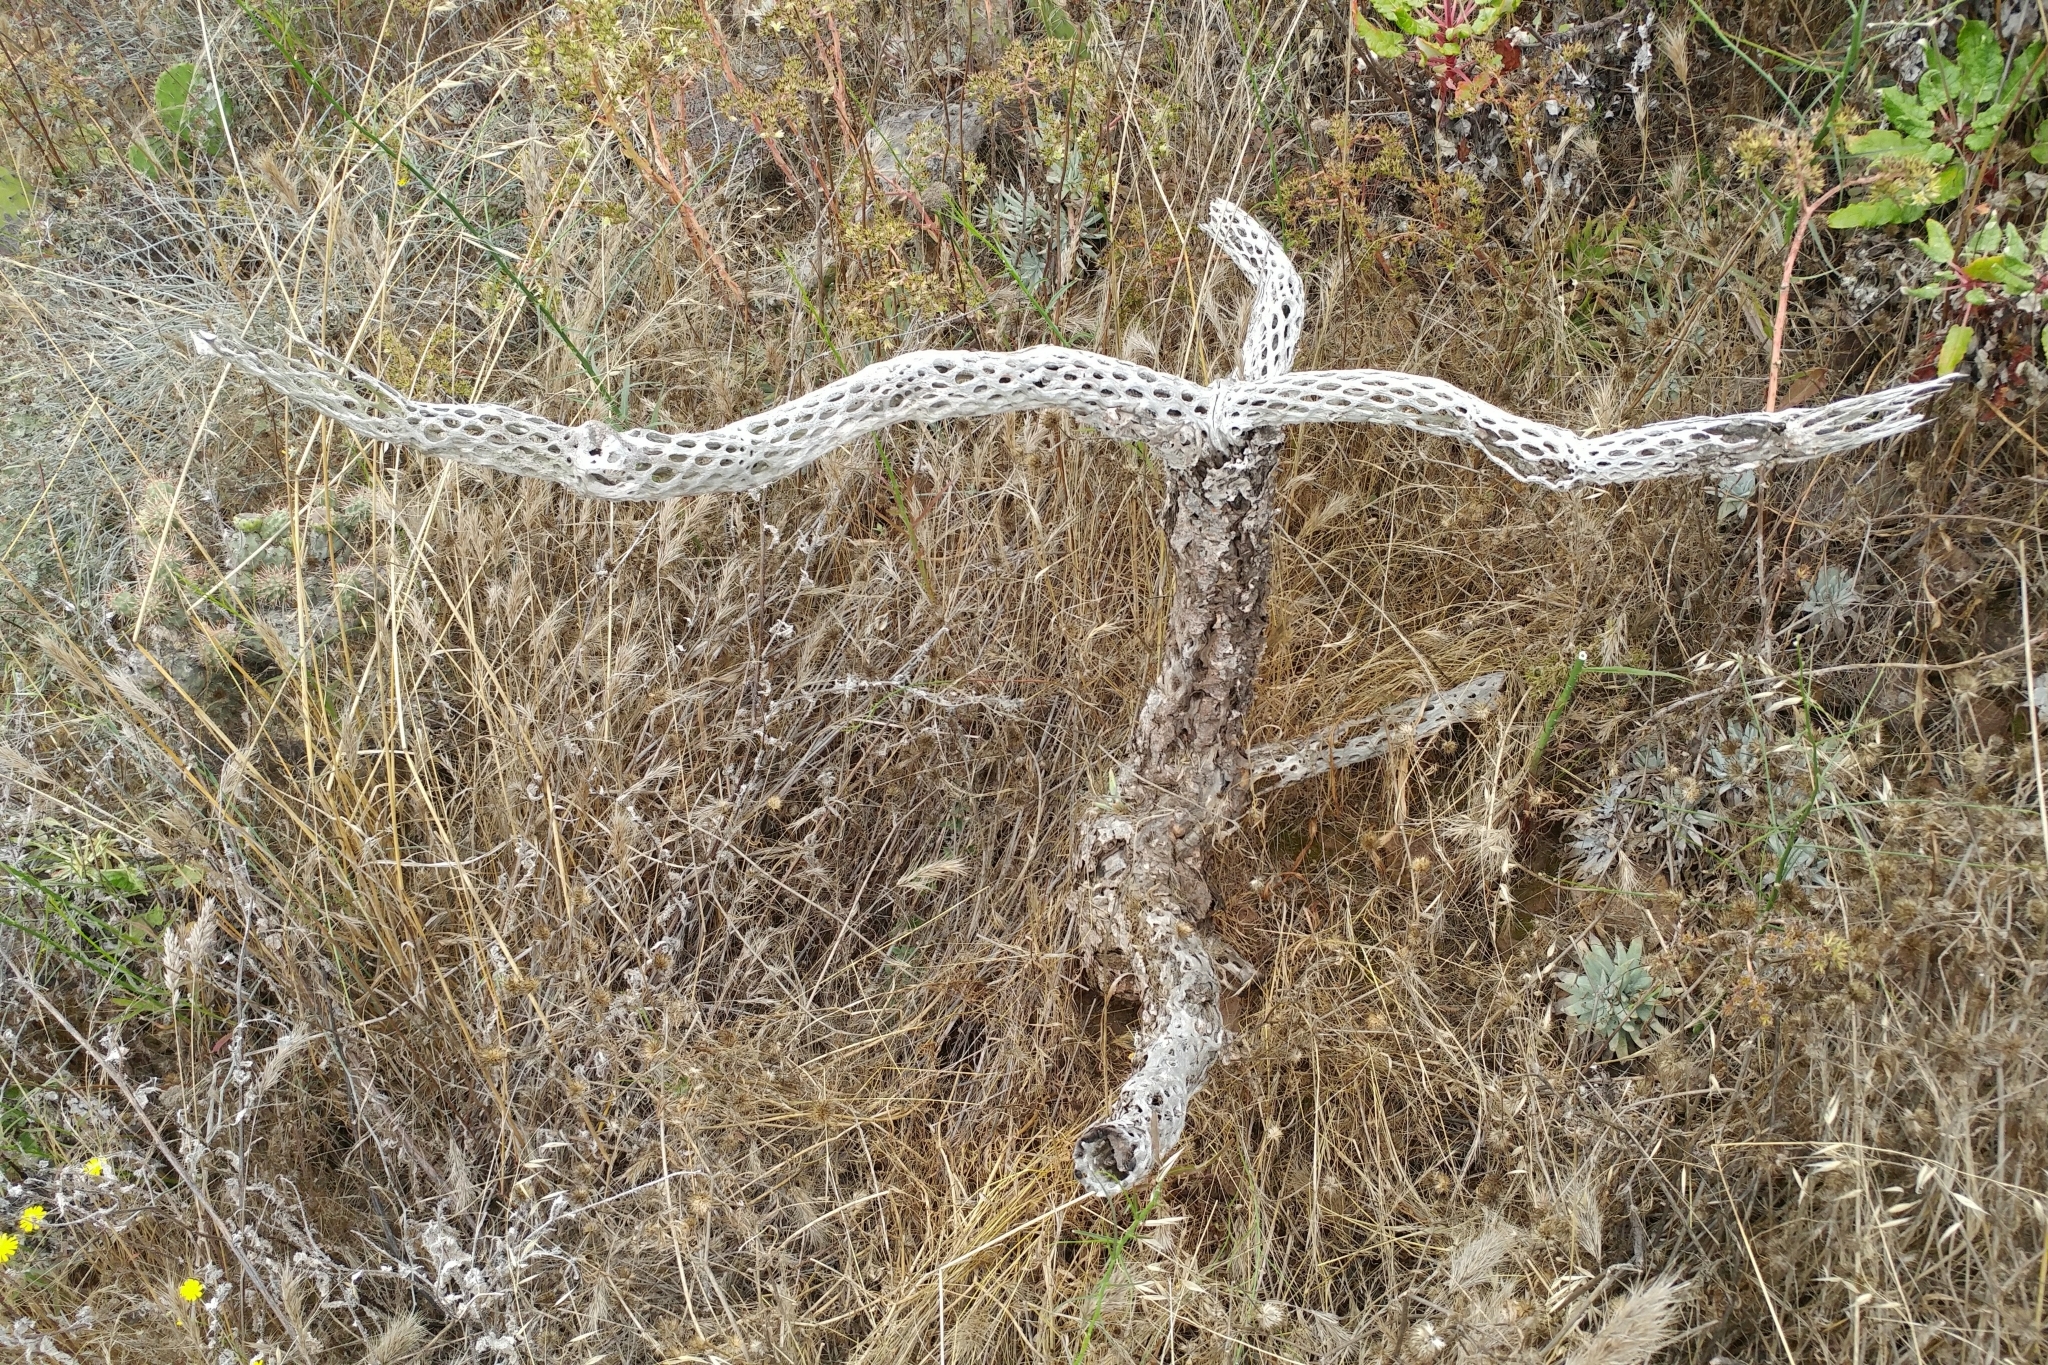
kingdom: Plantae
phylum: Tracheophyta
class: Magnoliopsida
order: Caryophyllales
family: Cactaceae
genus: Cylindropuntia
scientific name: Cylindropuntia prolifera
